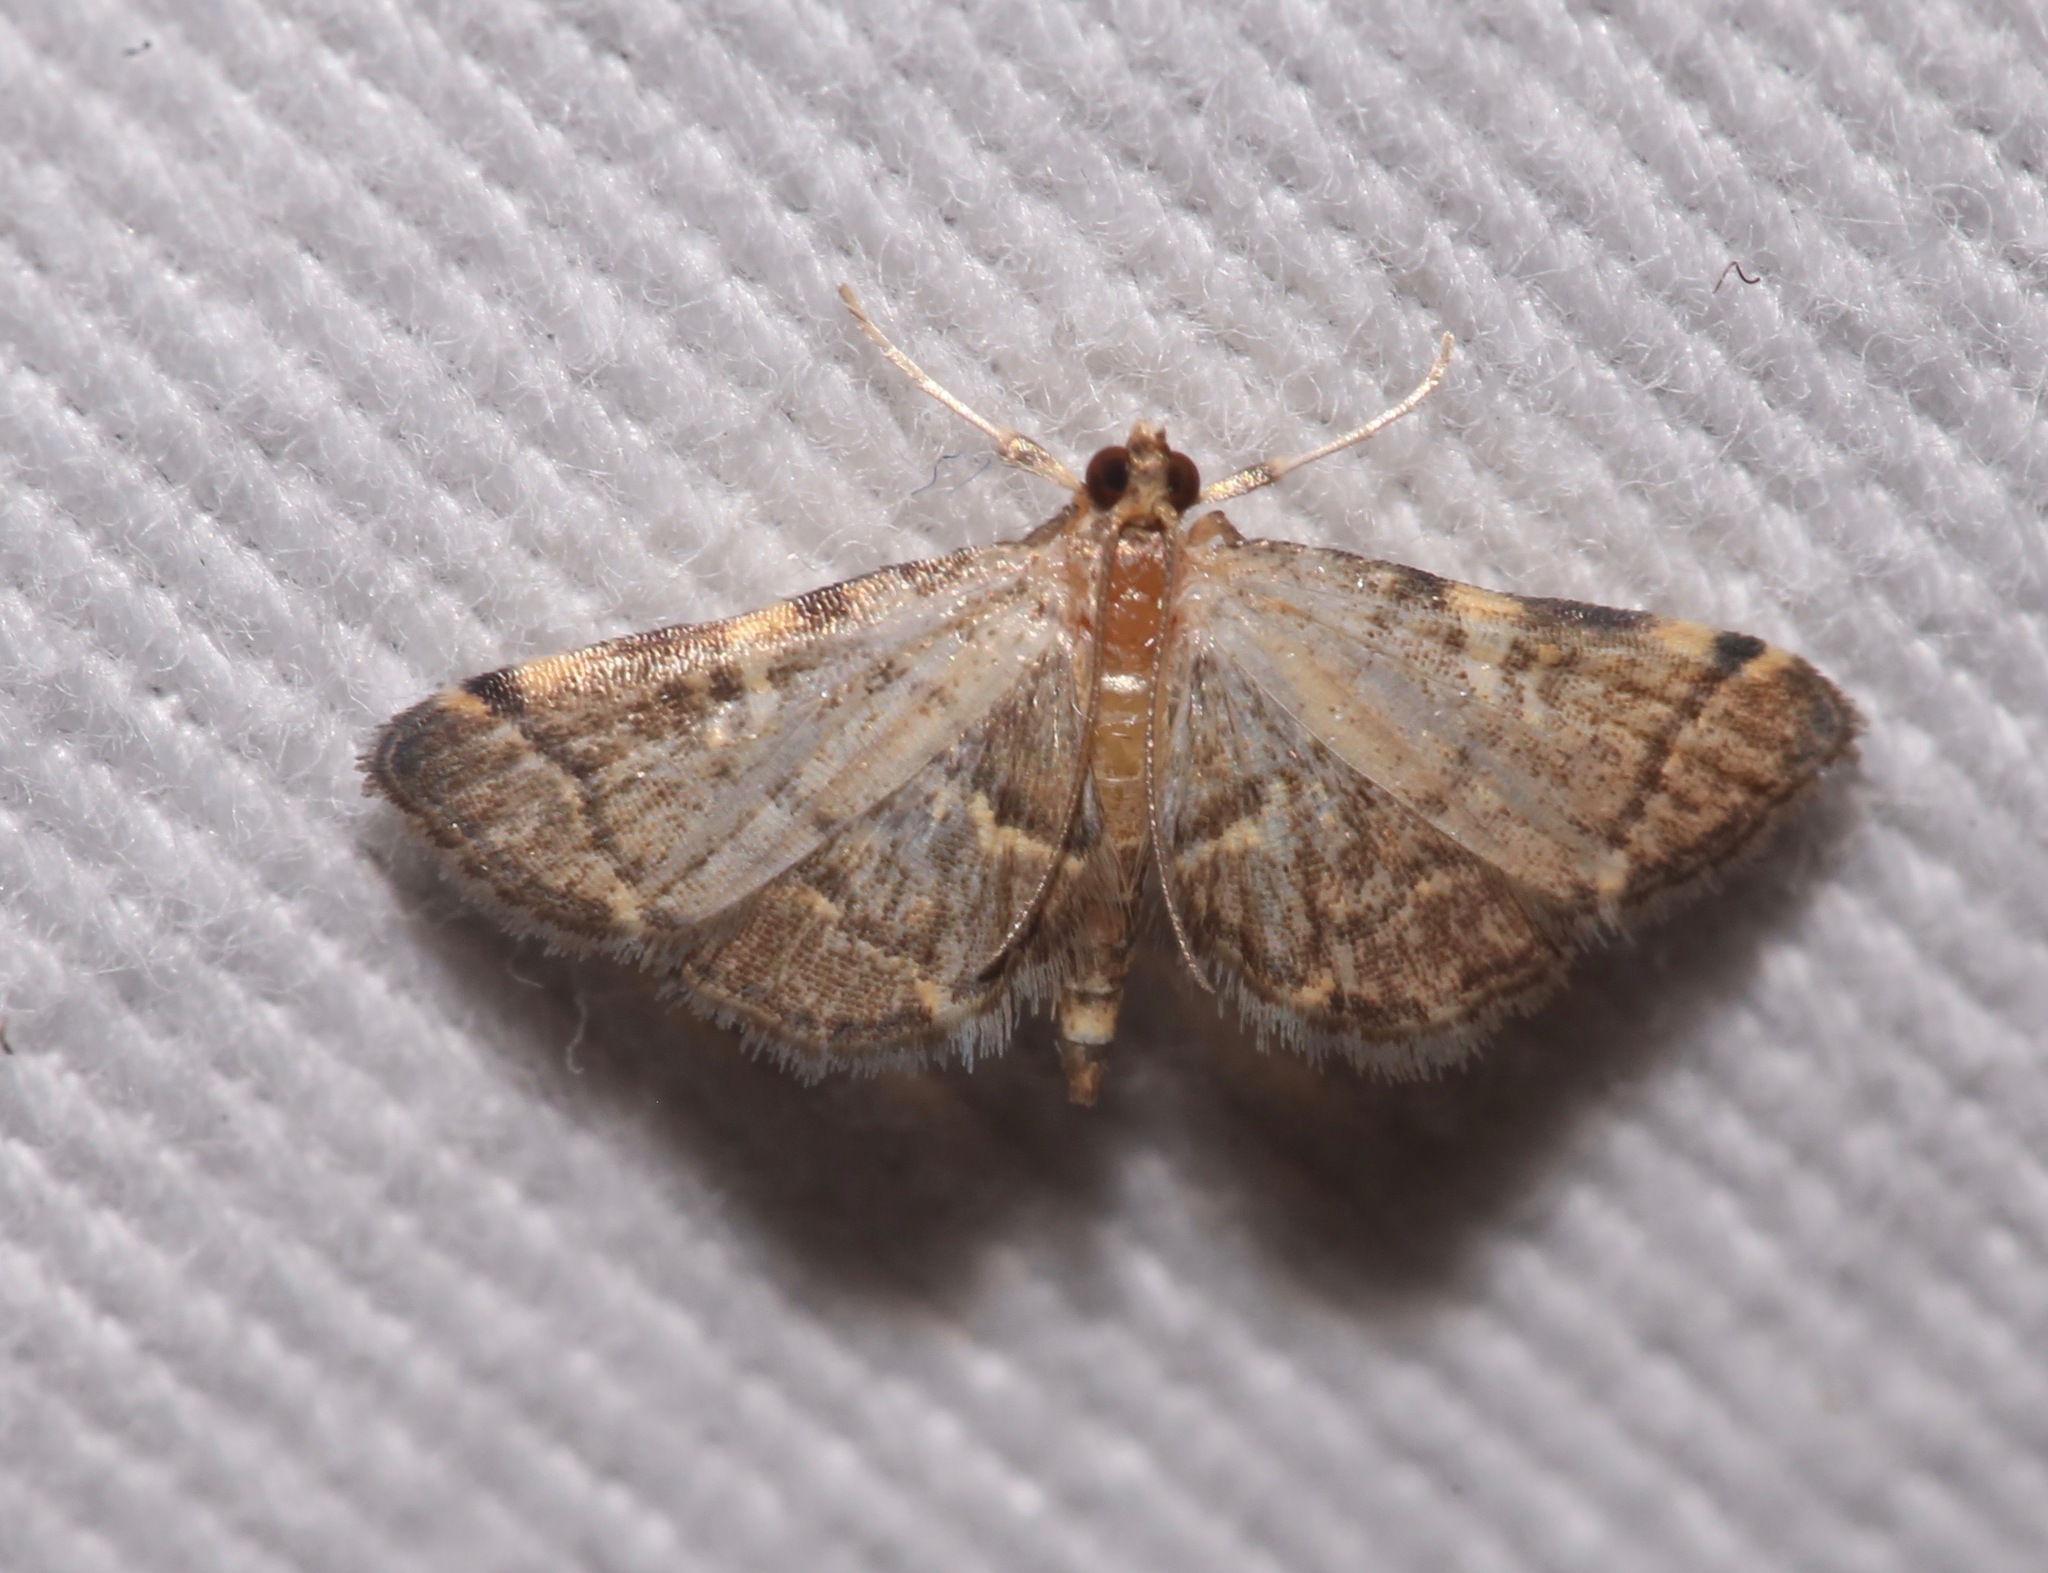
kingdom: Animalia
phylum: Arthropoda
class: Insecta
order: Lepidoptera
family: Crambidae
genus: Anageshna
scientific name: Anageshna primordialis
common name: Yellow-spotted webworm moth
